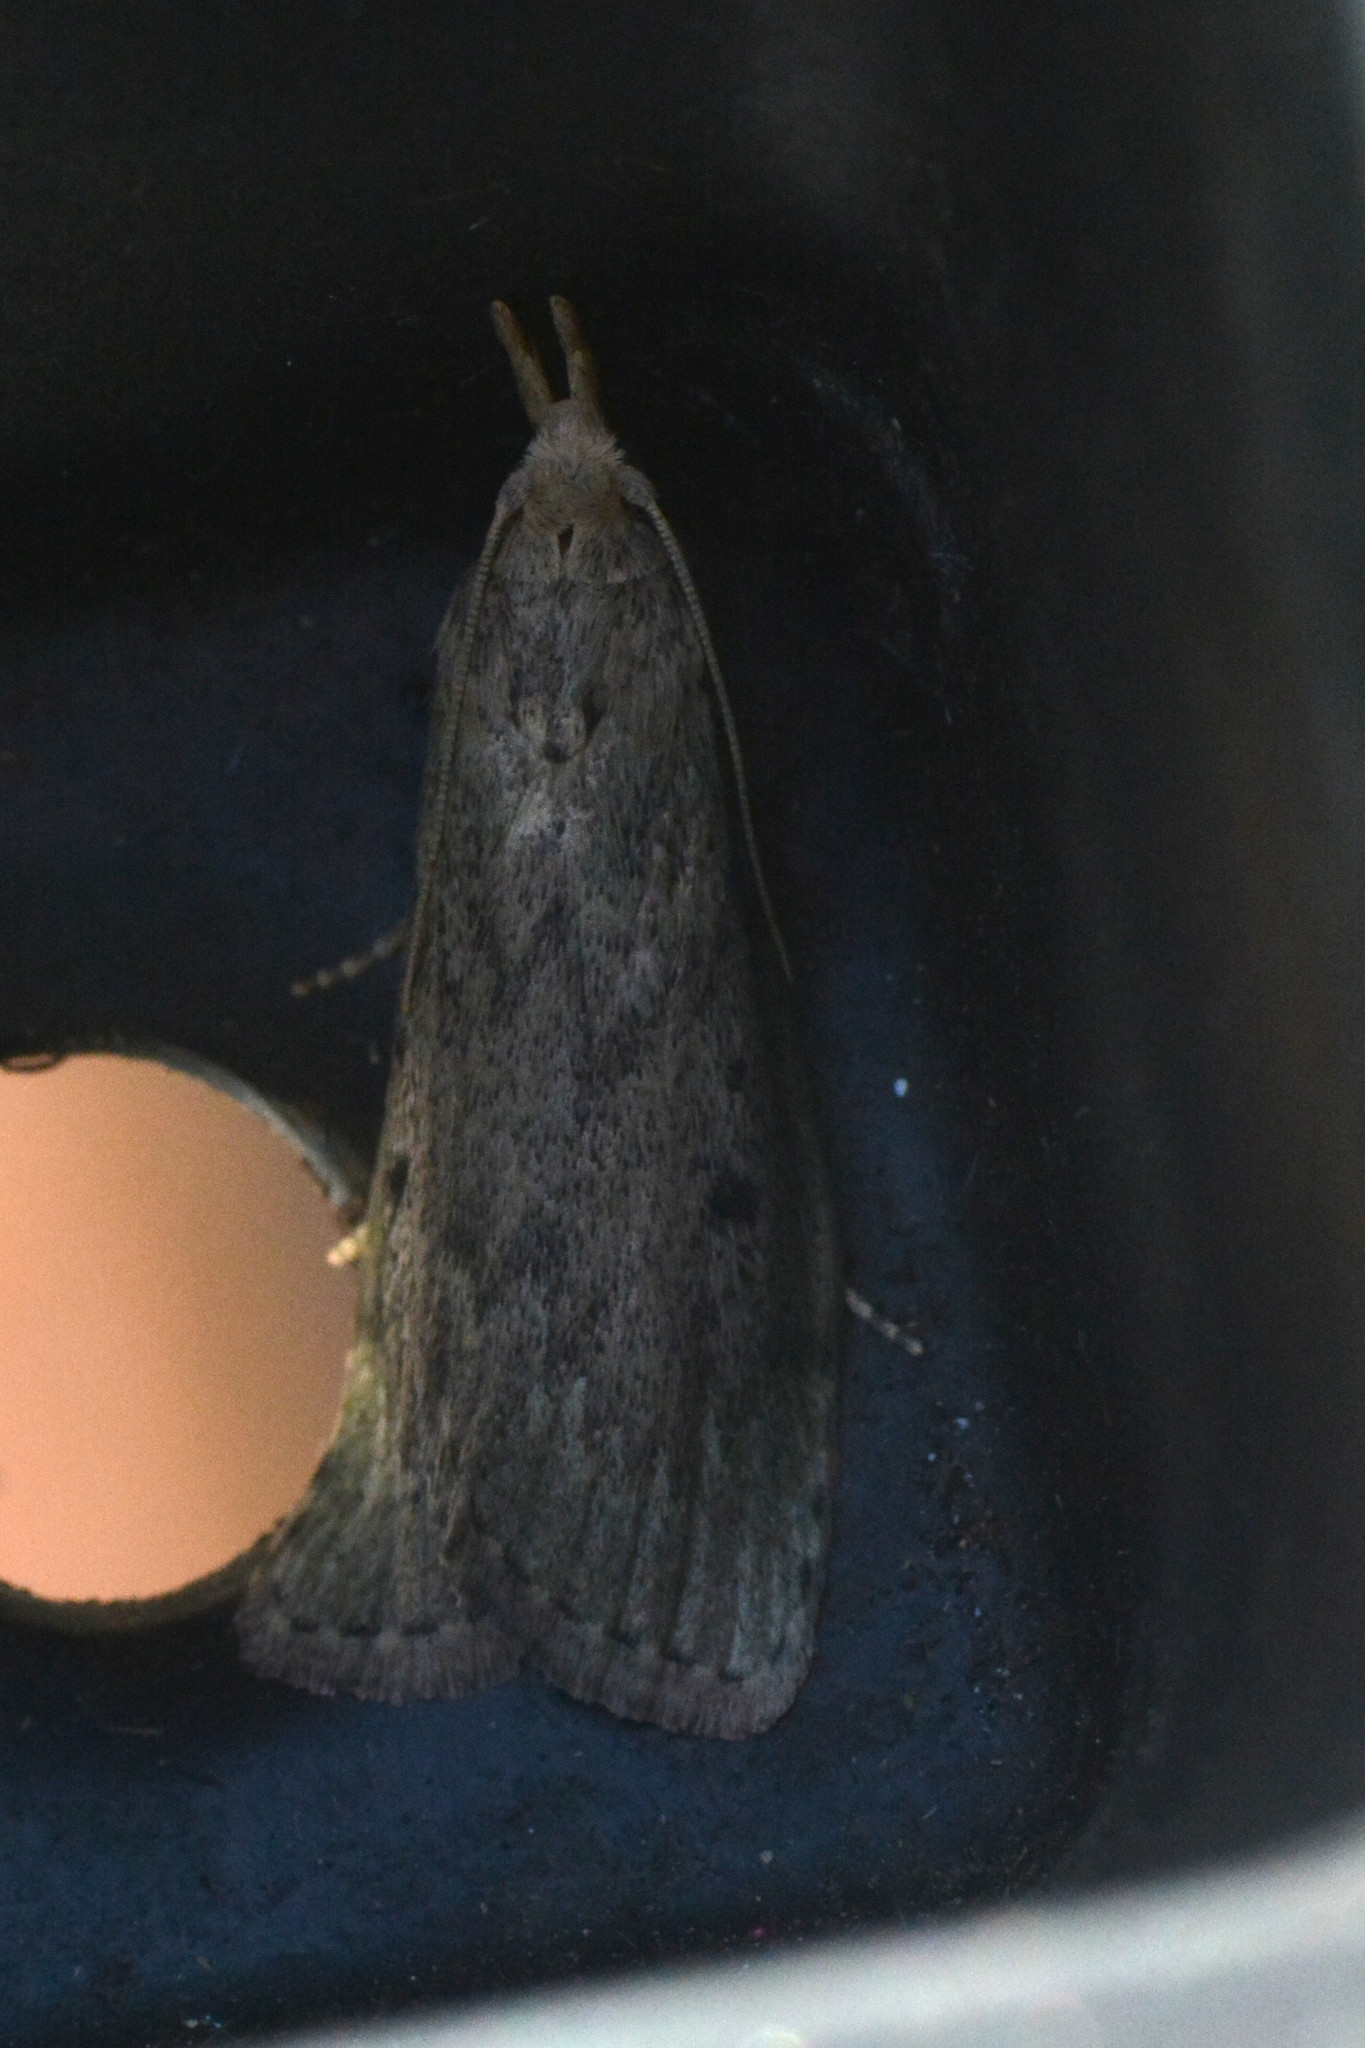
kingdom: Animalia
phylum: Arthropoda
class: Insecta
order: Lepidoptera
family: Pyralidae
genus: Aphomia
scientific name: Aphomia sociella
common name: Bee moth
